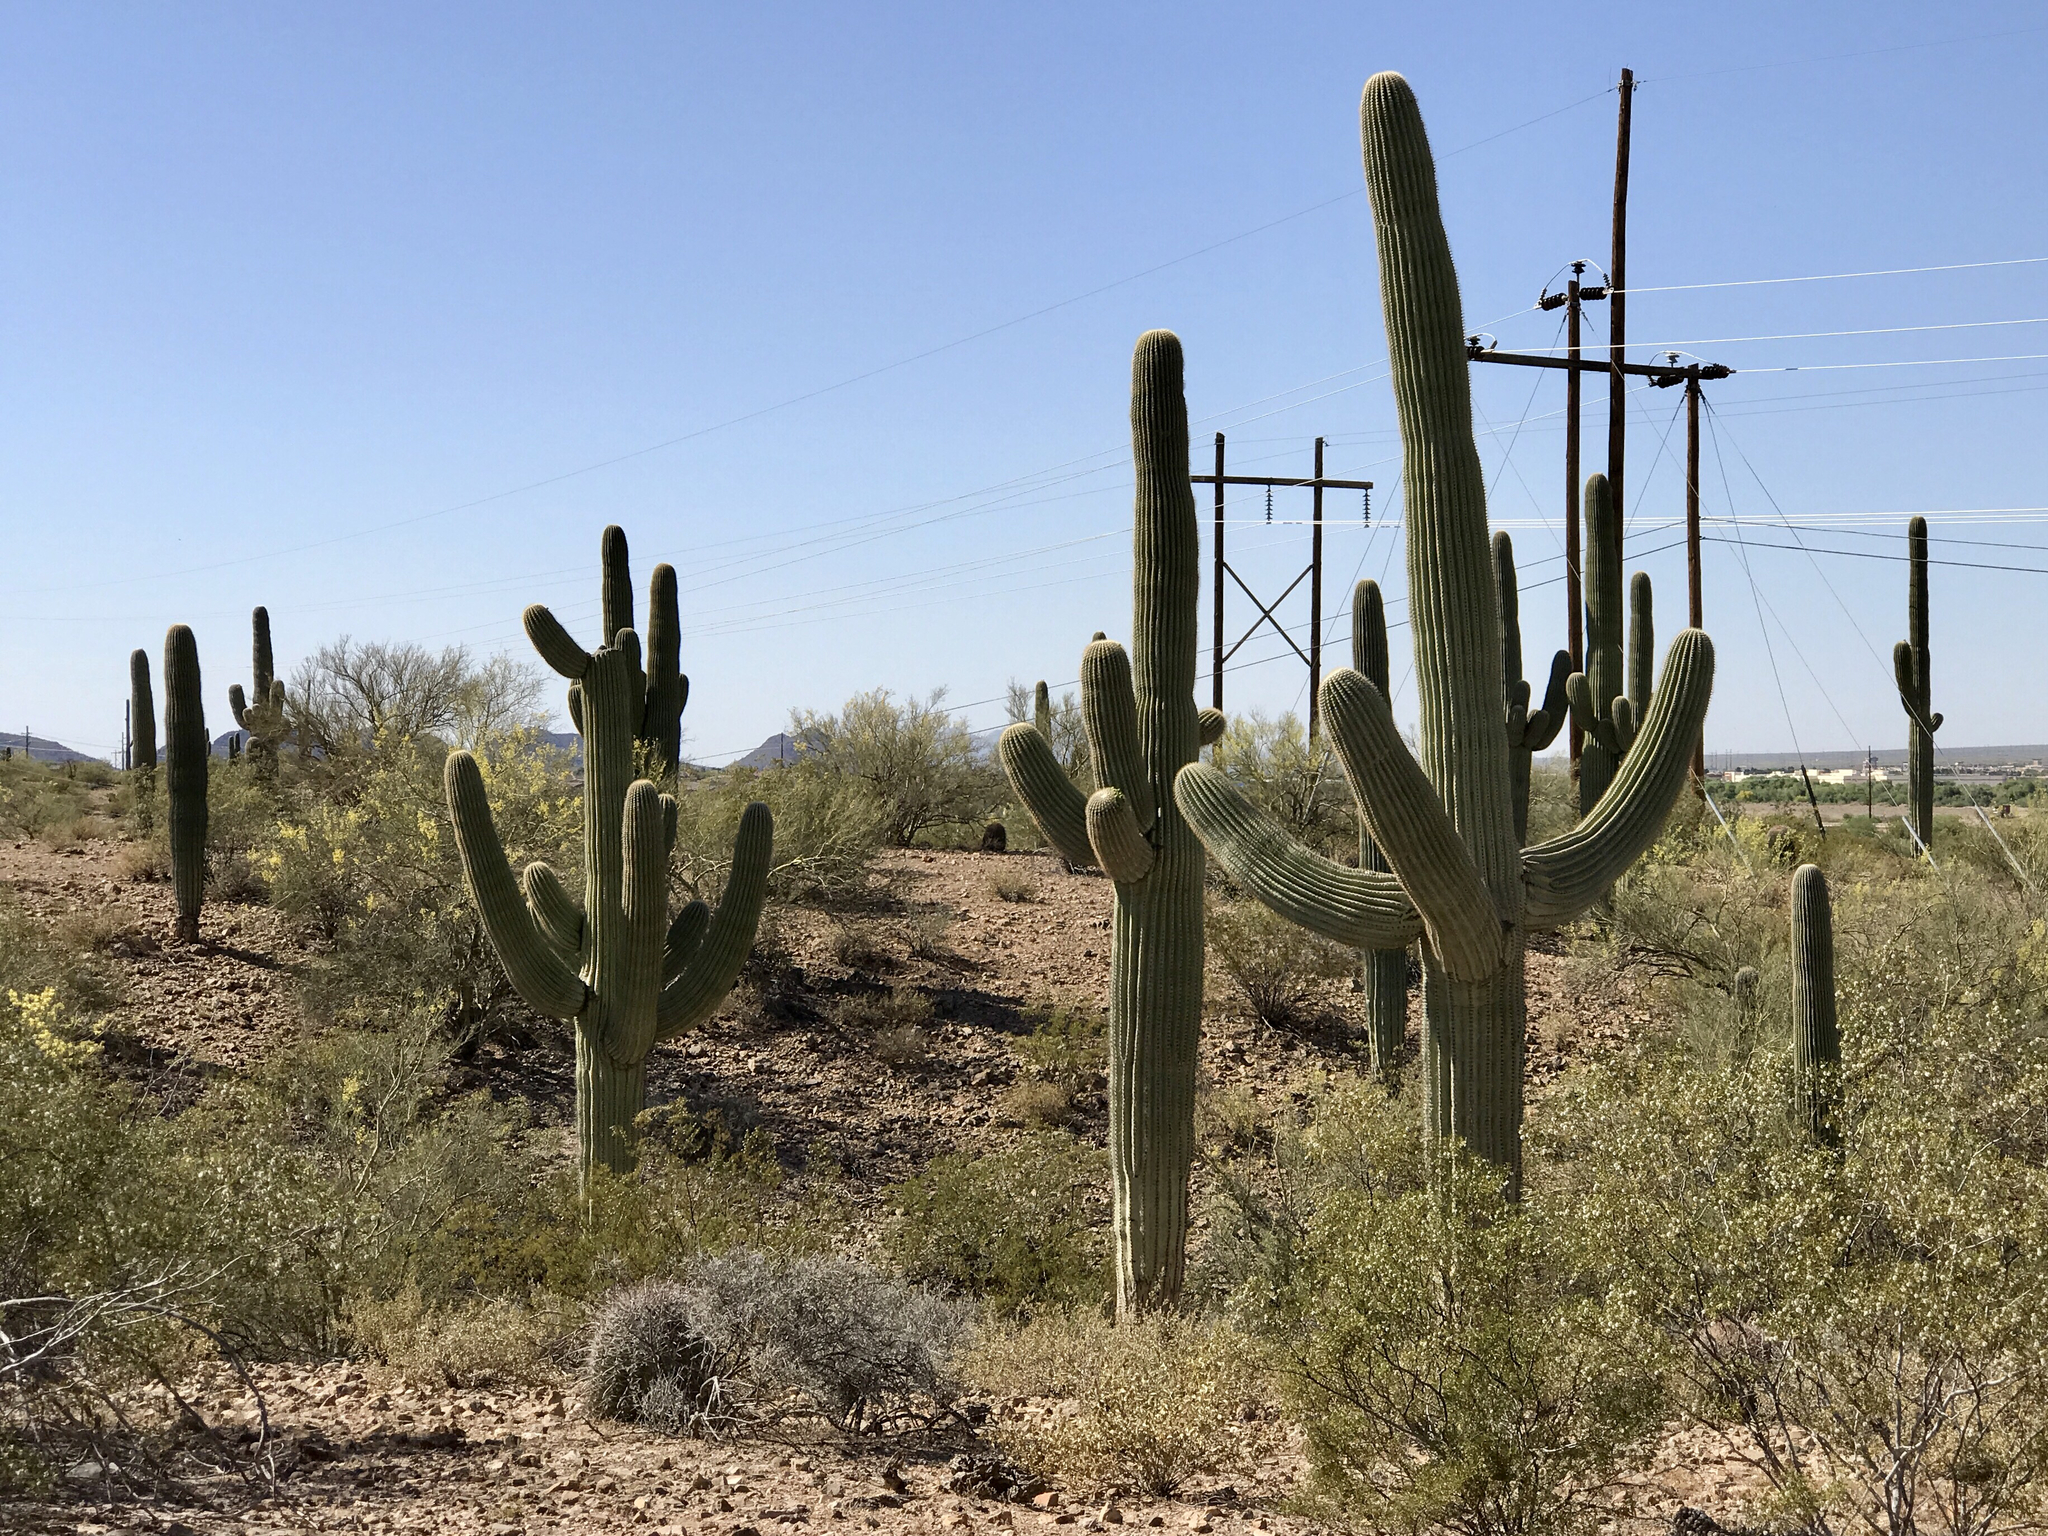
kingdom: Plantae
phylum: Tracheophyta
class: Magnoliopsida
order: Caryophyllales
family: Cactaceae
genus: Carnegiea
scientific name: Carnegiea gigantea
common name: Saguaro
